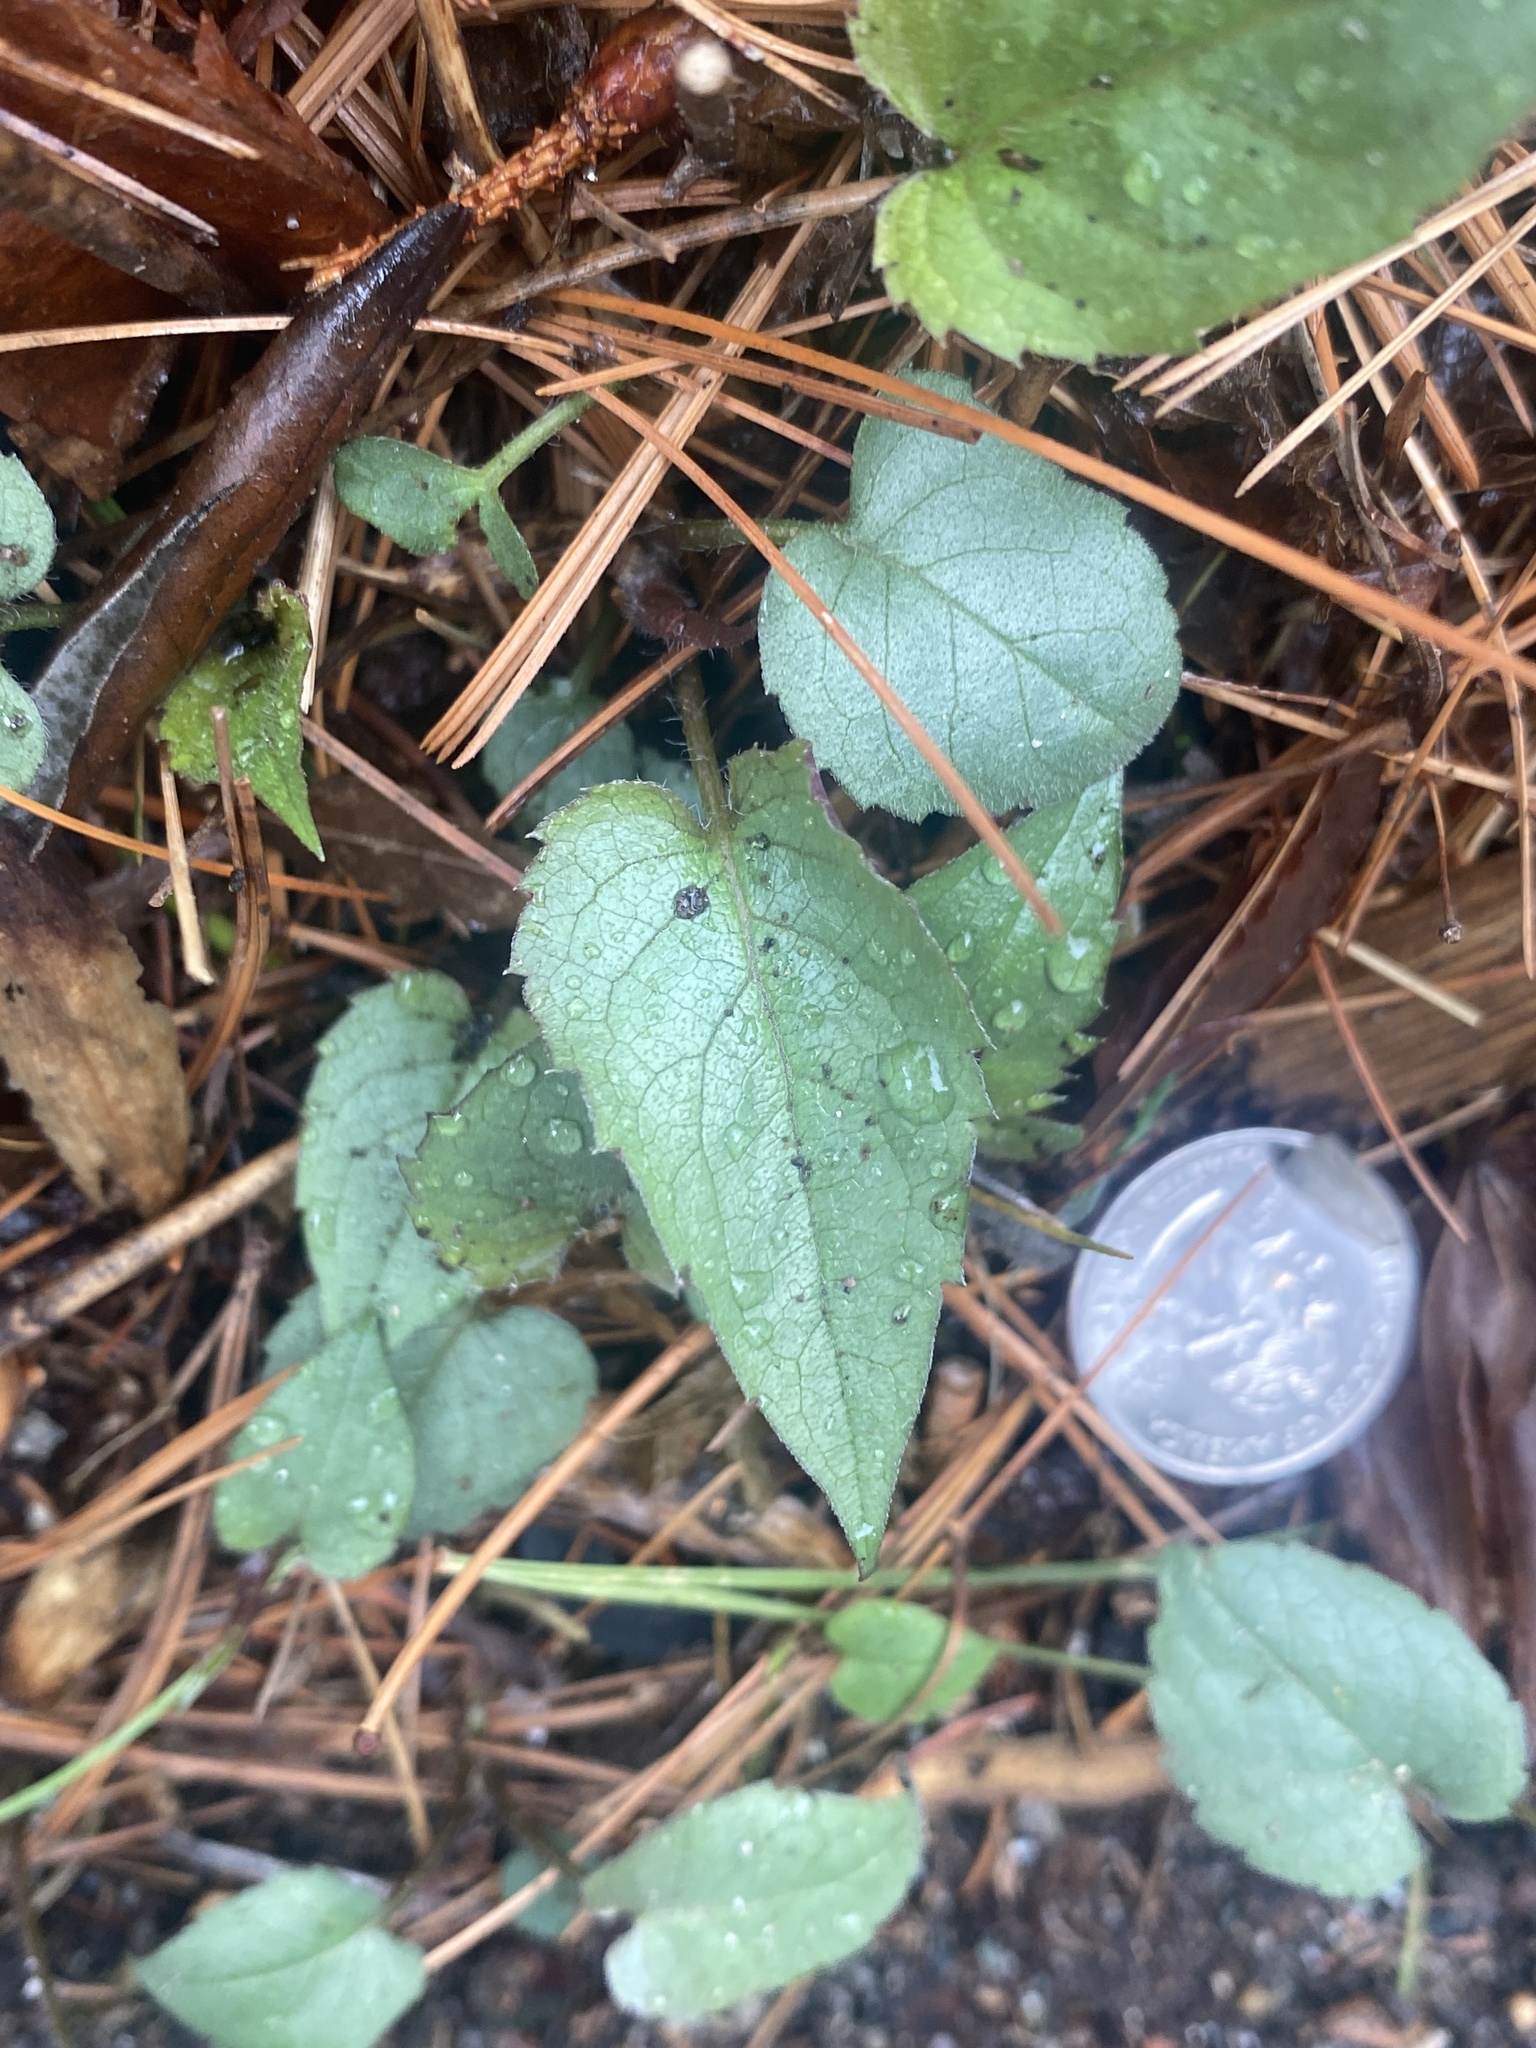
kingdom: Plantae
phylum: Tracheophyta
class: Magnoliopsida
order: Asterales
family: Asteraceae
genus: Eurybia
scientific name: Eurybia divaricata
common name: White wood aster
